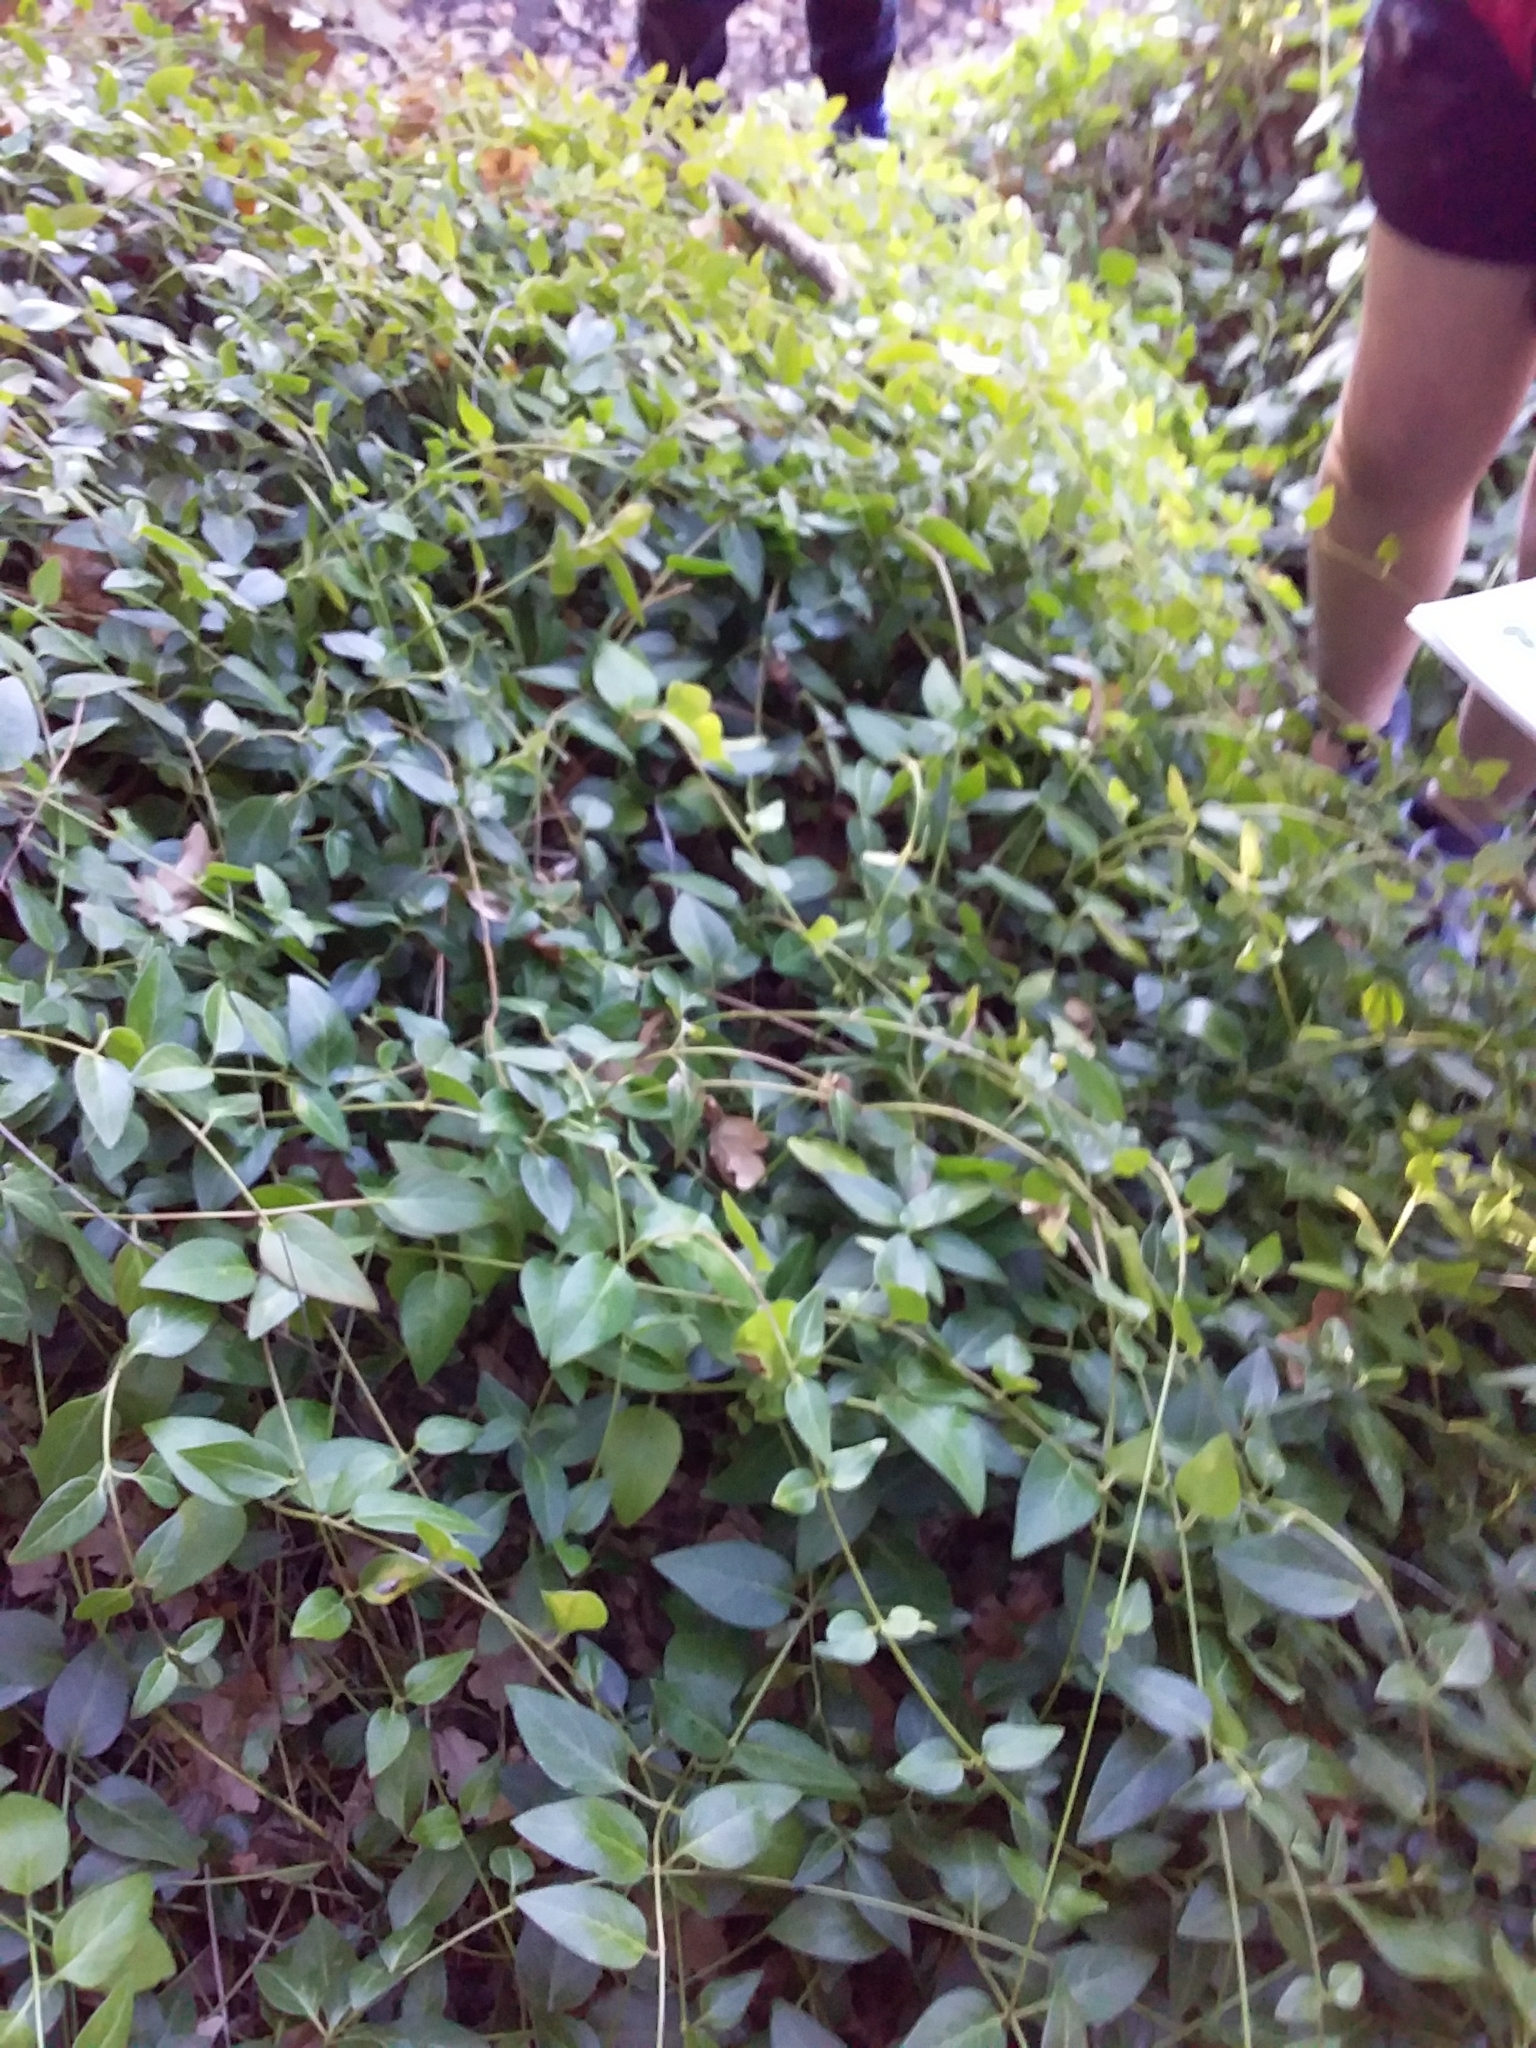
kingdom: Plantae
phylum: Tracheophyta
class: Magnoliopsida
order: Gentianales
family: Apocynaceae
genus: Vinca
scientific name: Vinca major
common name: Greater periwinkle
